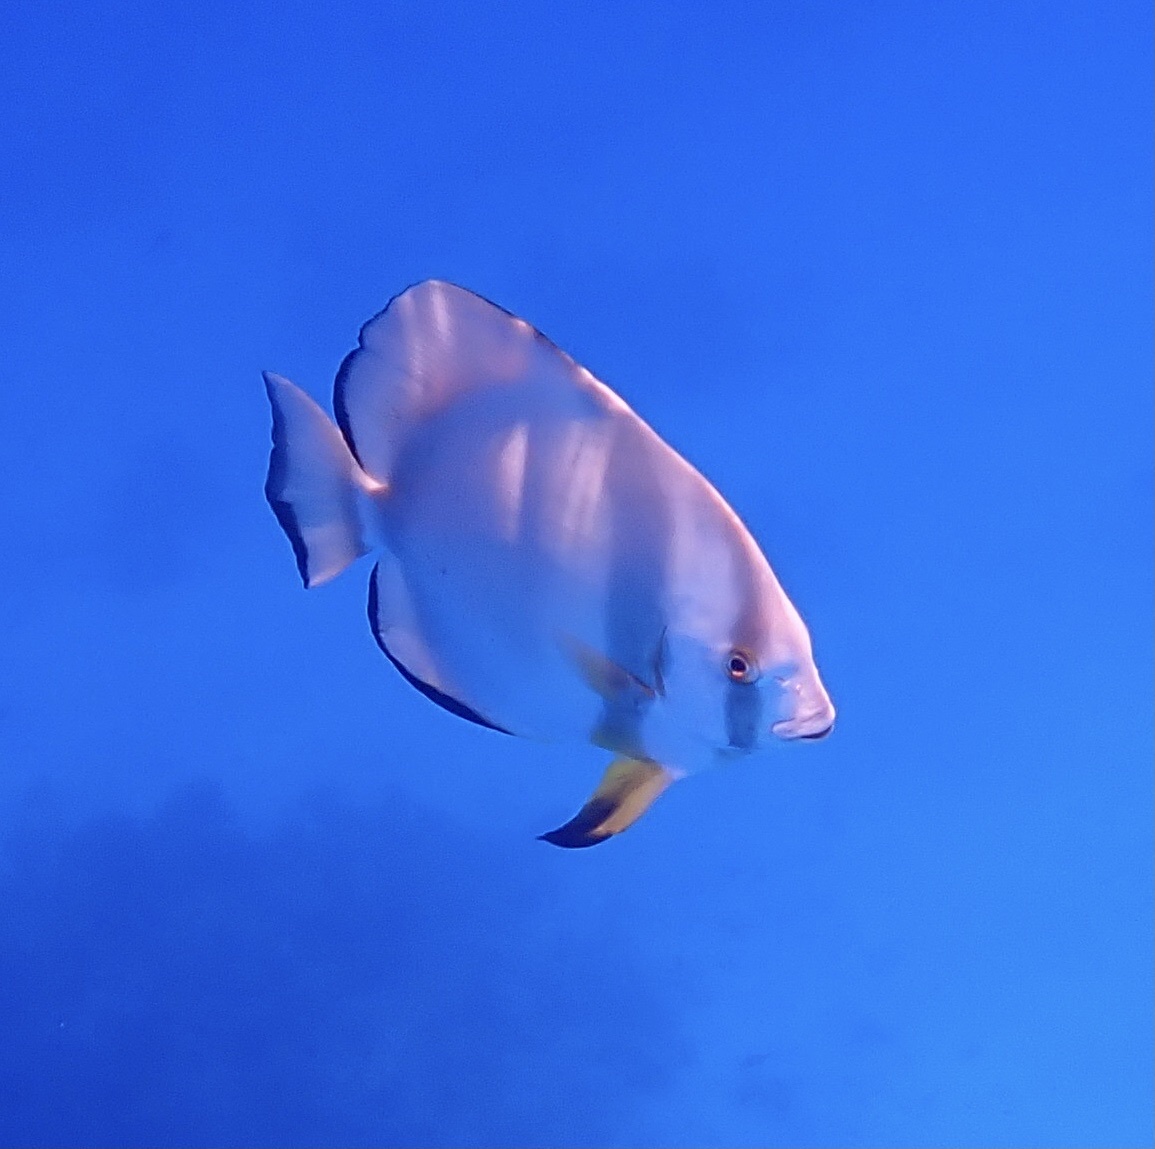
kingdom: Animalia
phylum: Chordata
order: Perciformes
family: Ephippidae
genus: Platax
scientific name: Platax orbicularis
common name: Batfish
